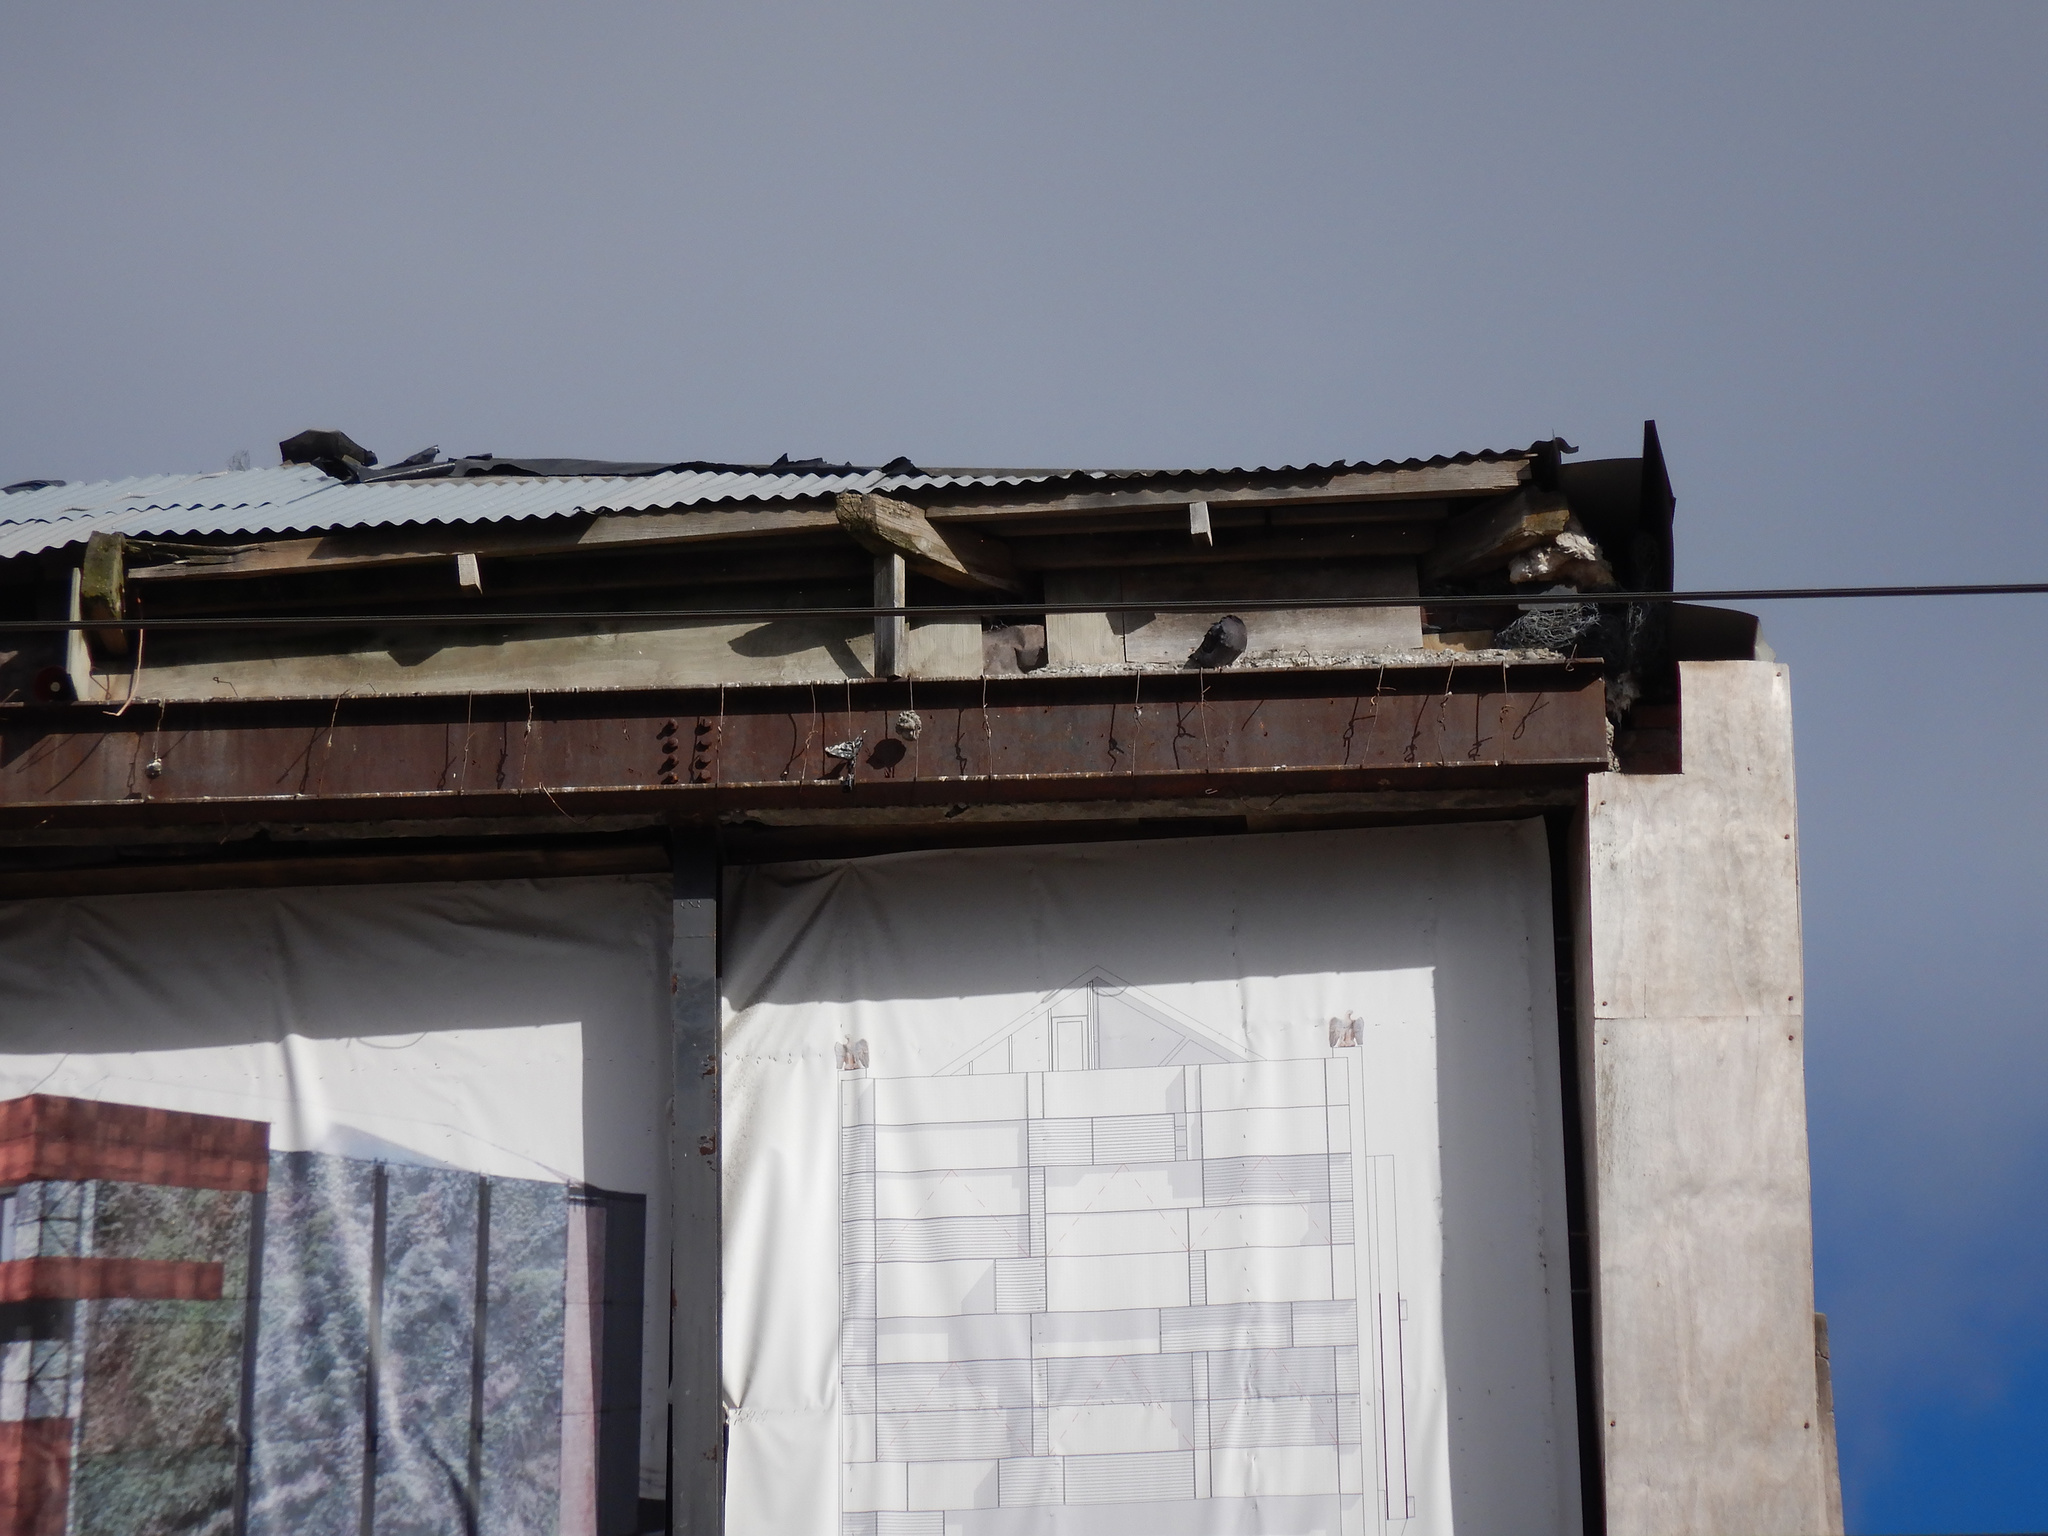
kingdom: Animalia
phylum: Chordata
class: Aves
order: Columbiformes
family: Columbidae
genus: Columba
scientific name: Columba livia
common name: Rock pigeon
